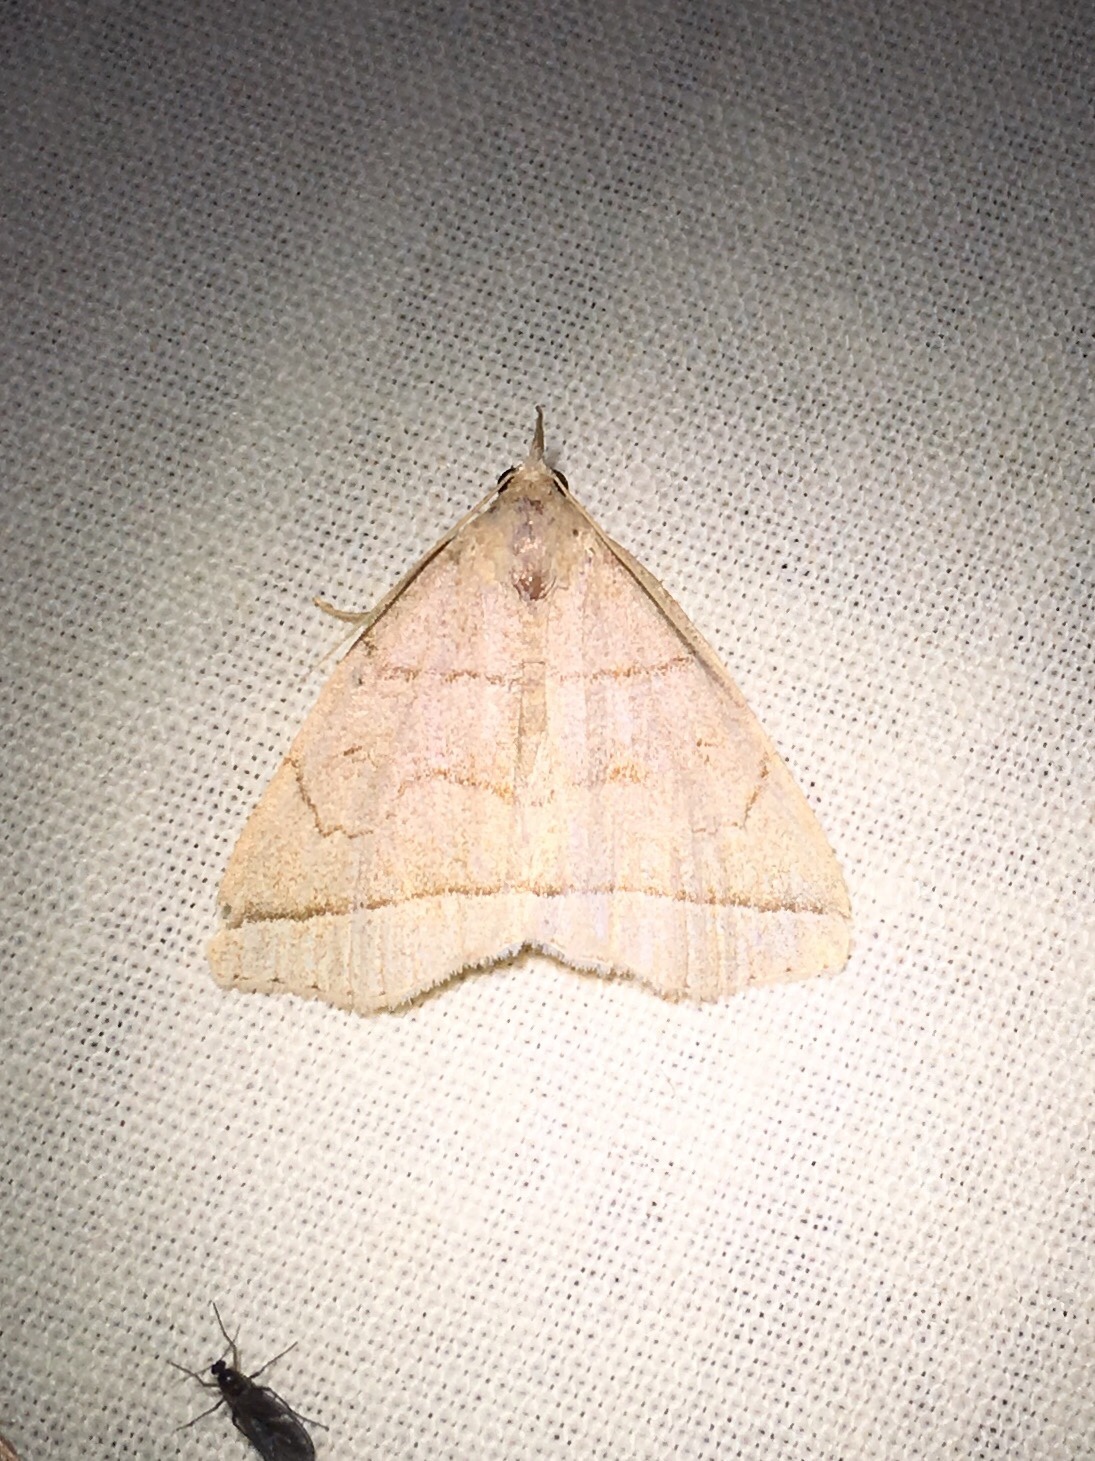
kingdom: Animalia
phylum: Arthropoda
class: Insecta
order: Lepidoptera
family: Erebidae
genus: Zanclognatha
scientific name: Zanclognatha cruralis
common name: Early fan-foot
